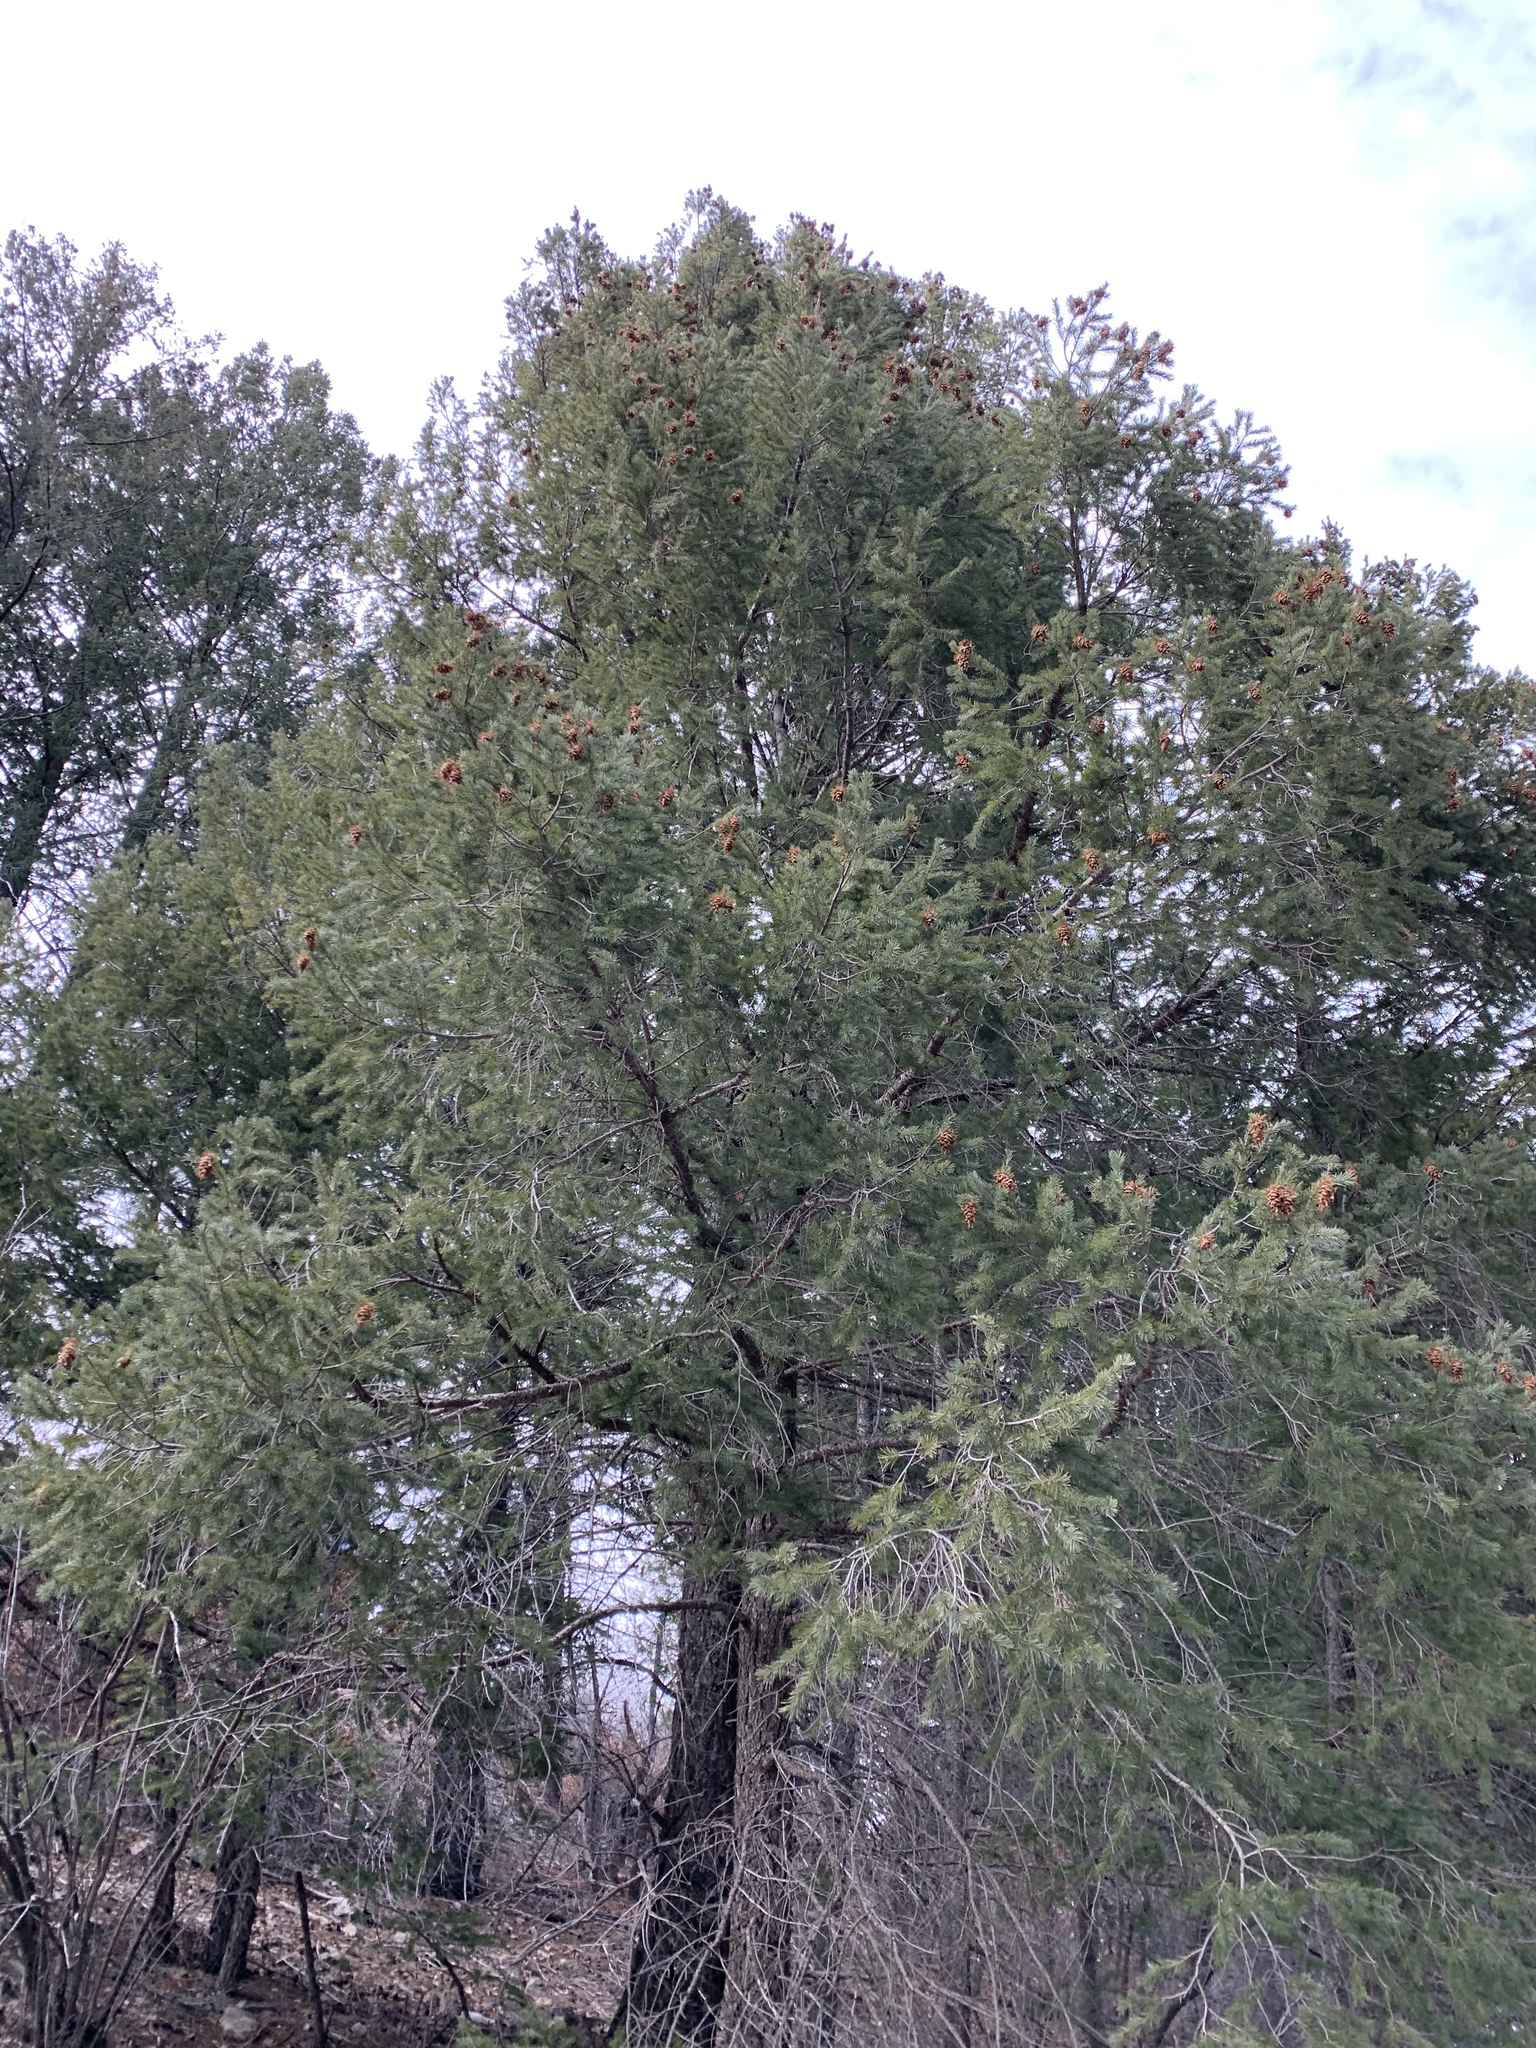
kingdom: Plantae
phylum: Tracheophyta
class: Pinopsida
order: Pinales
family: Pinaceae
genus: Pseudotsuga
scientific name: Pseudotsuga menziesii
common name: Douglas fir
